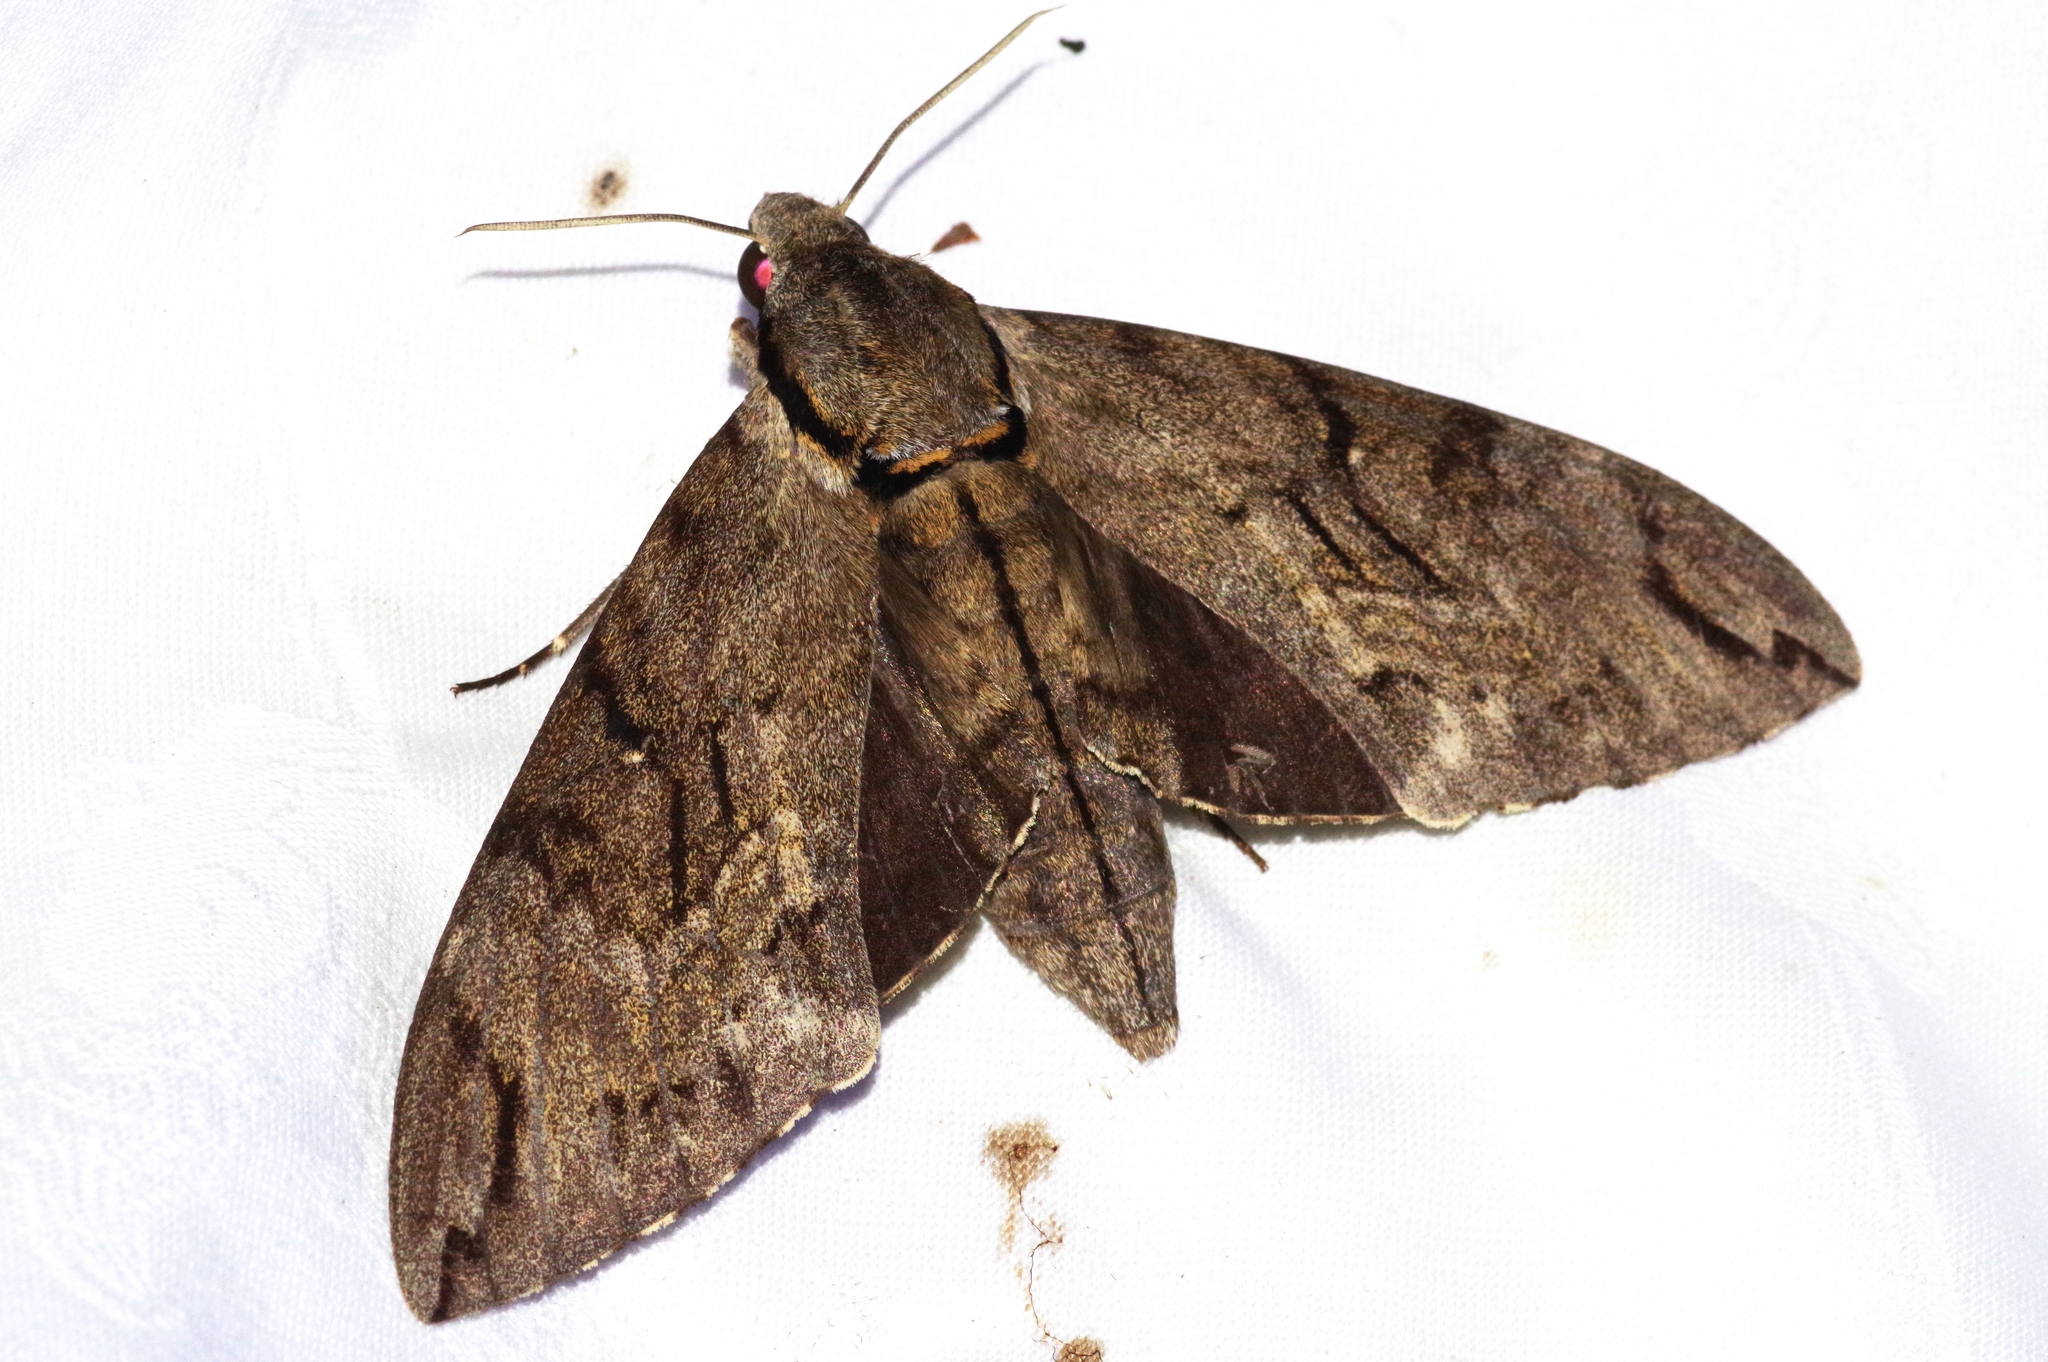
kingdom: Animalia
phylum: Arthropoda
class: Insecta
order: Lepidoptera
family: Sphingidae
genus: Psilogramma
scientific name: Psilogramma increta
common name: Gray hawk moth
